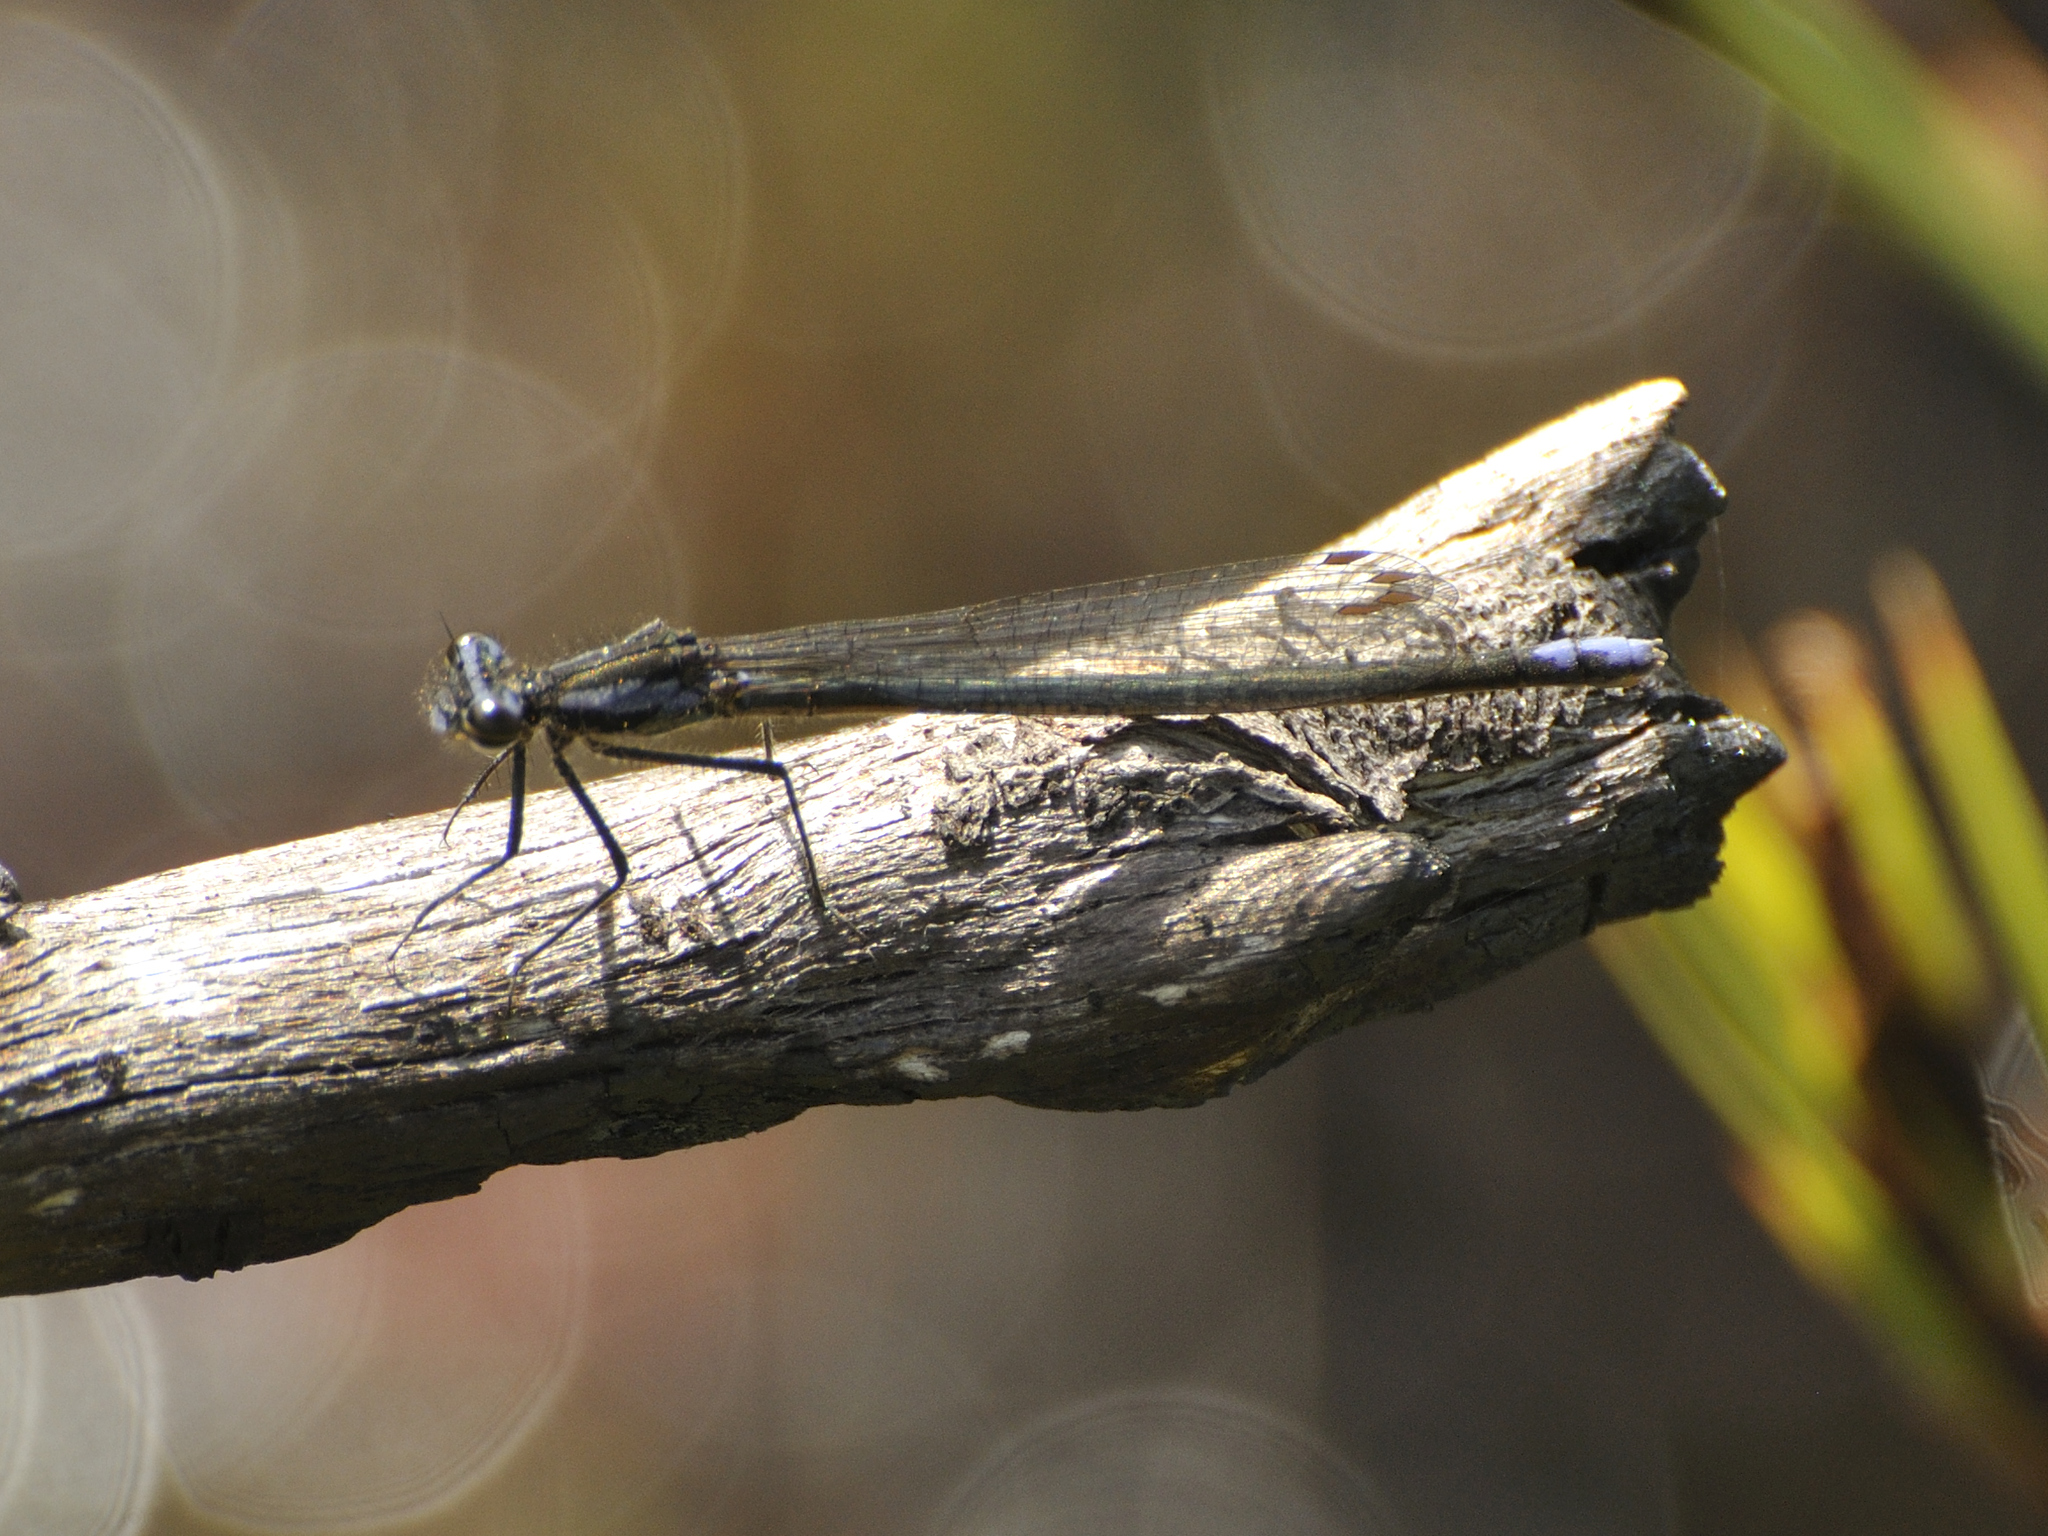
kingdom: Animalia
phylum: Arthropoda
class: Insecta
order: Odonata
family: Platycnemididae
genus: Spesbona
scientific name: Spesbona angusta
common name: Ceres featherlegs
